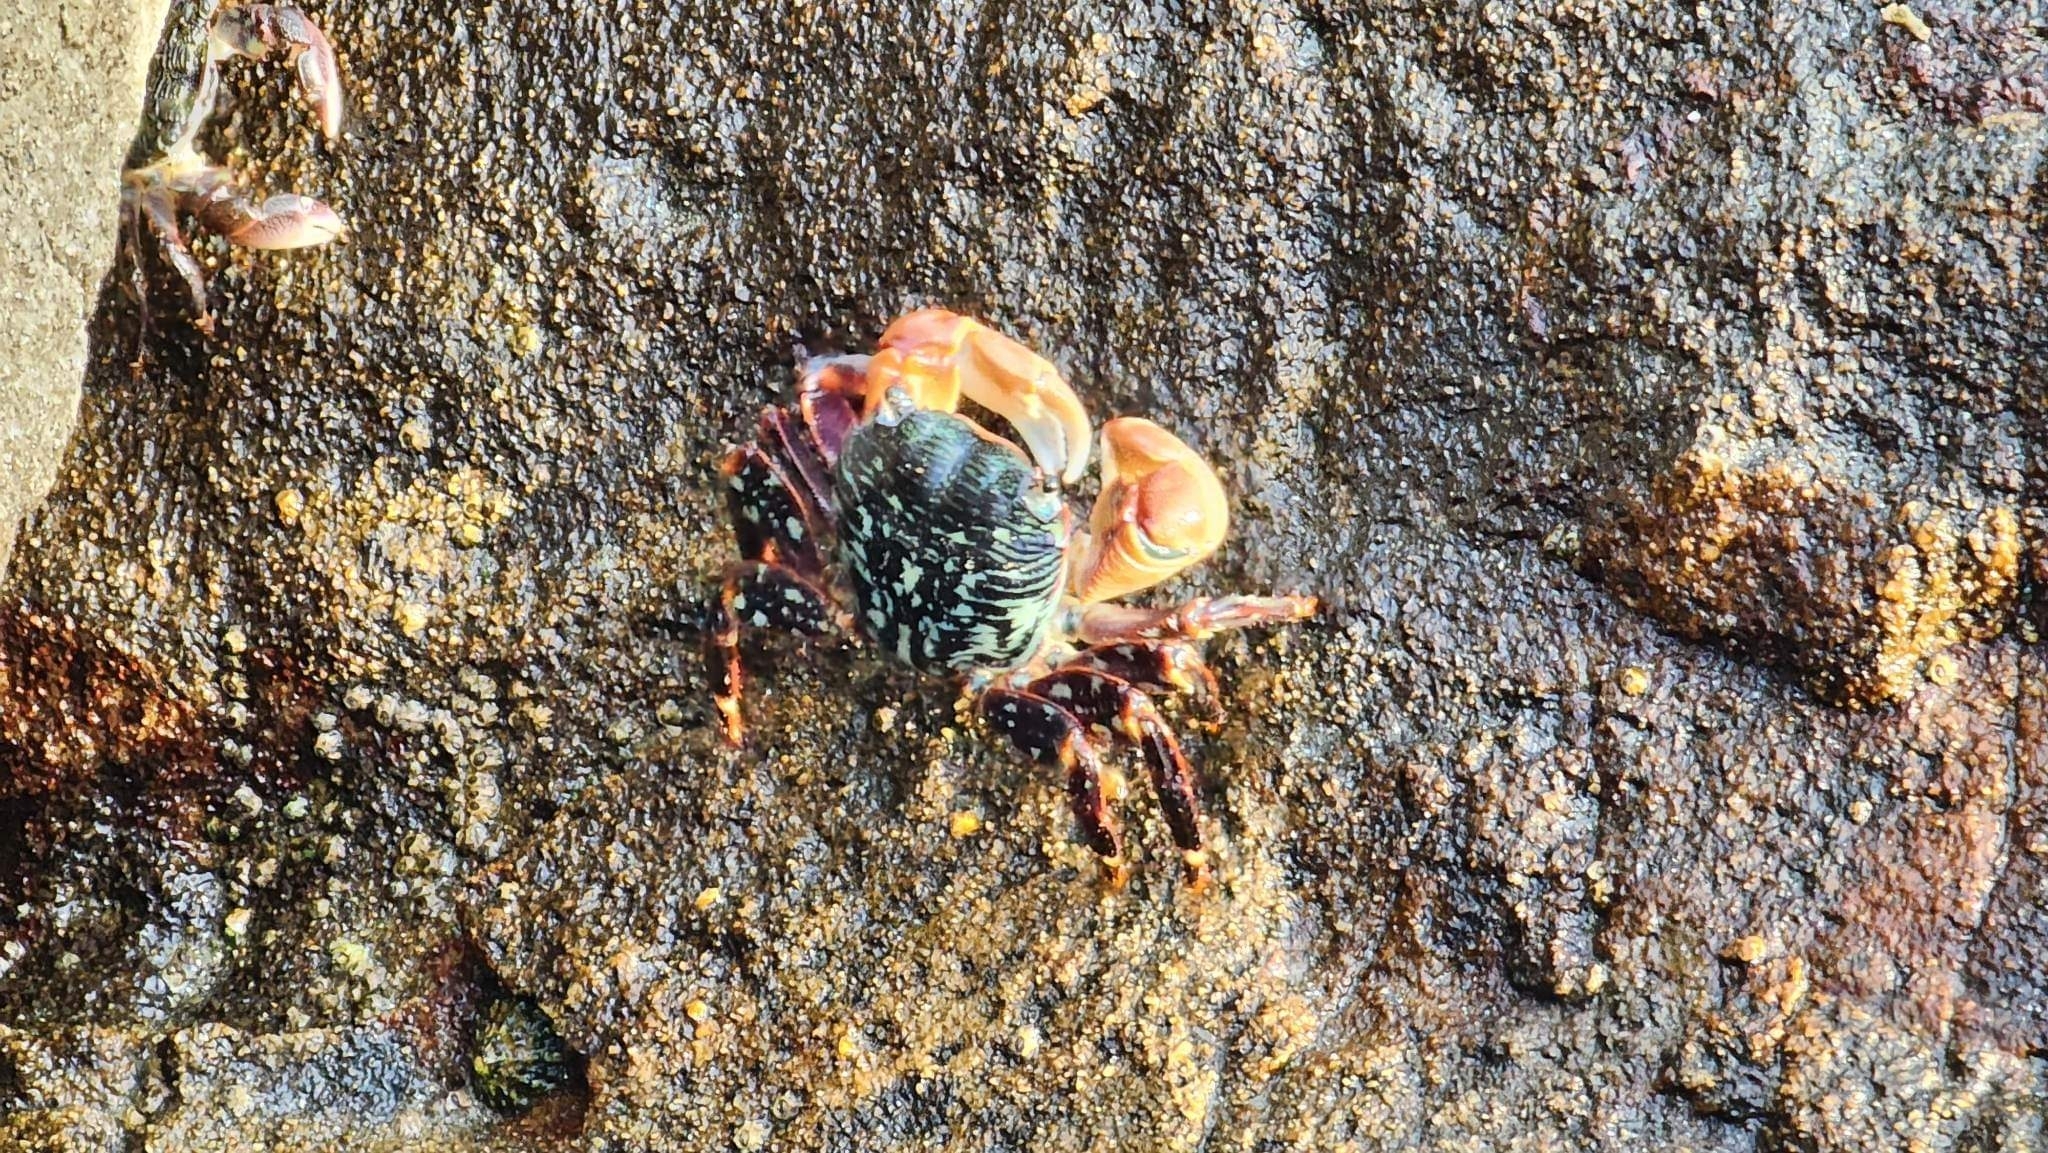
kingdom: Animalia
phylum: Arthropoda
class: Malacostraca
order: Decapoda
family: Grapsidae
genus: Pachygrapsus
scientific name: Pachygrapsus crassipes
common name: Striped shore crab
